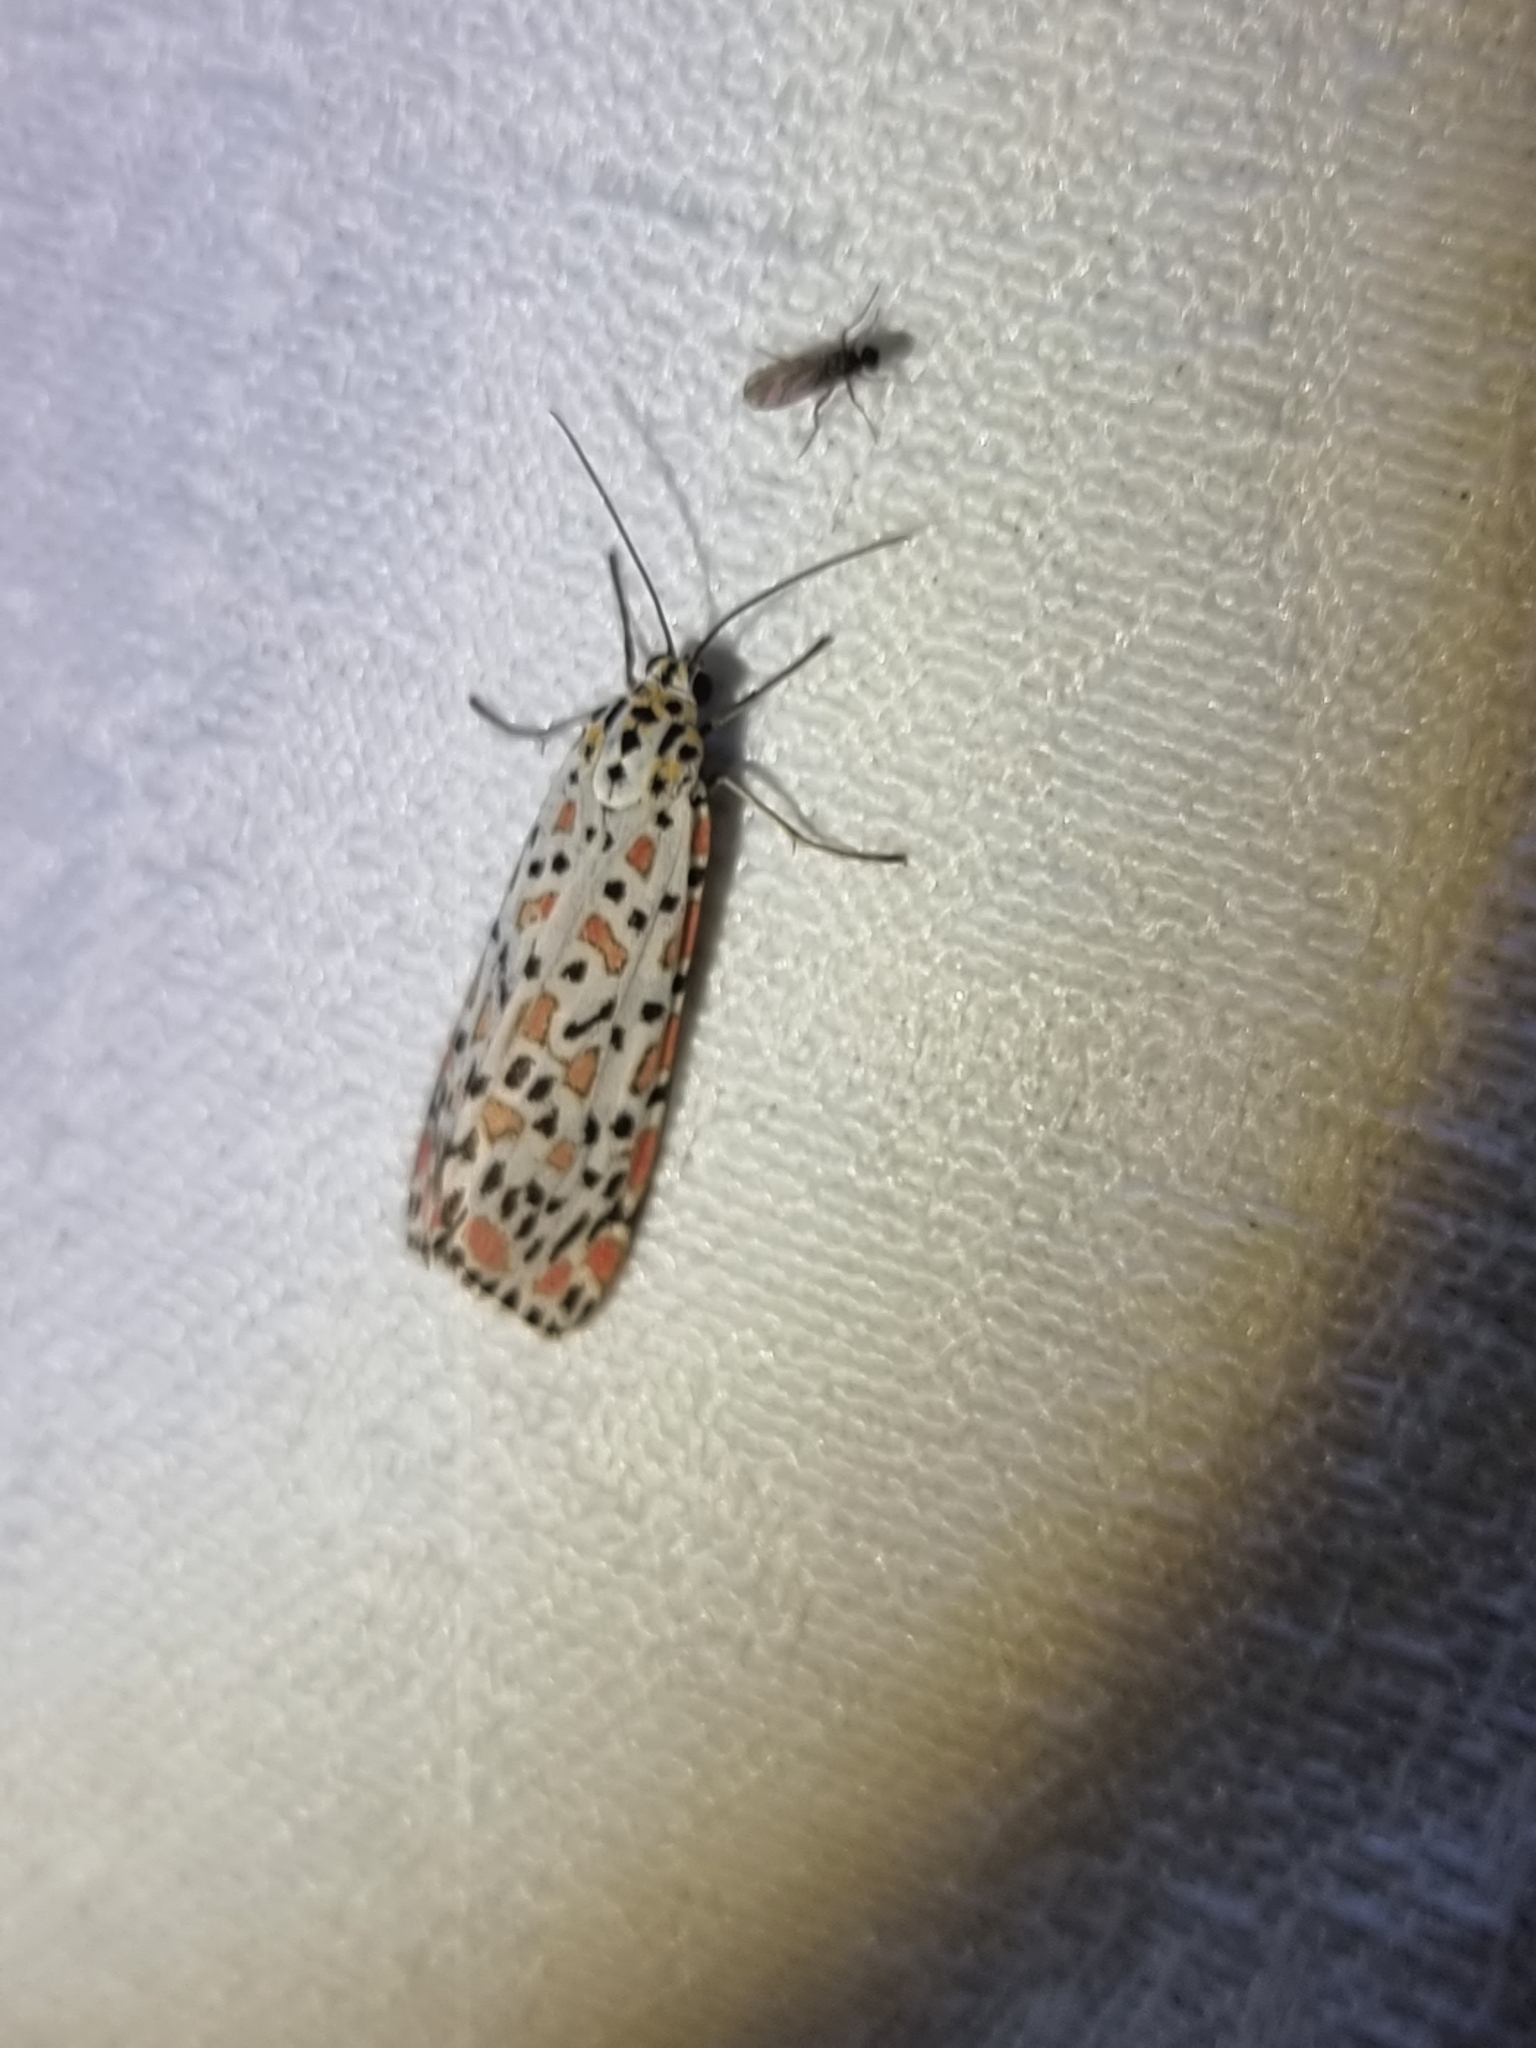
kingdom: Animalia
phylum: Arthropoda
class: Insecta
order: Lepidoptera
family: Erebidae
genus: Utetheisa
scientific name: Utetheisa lotrix
